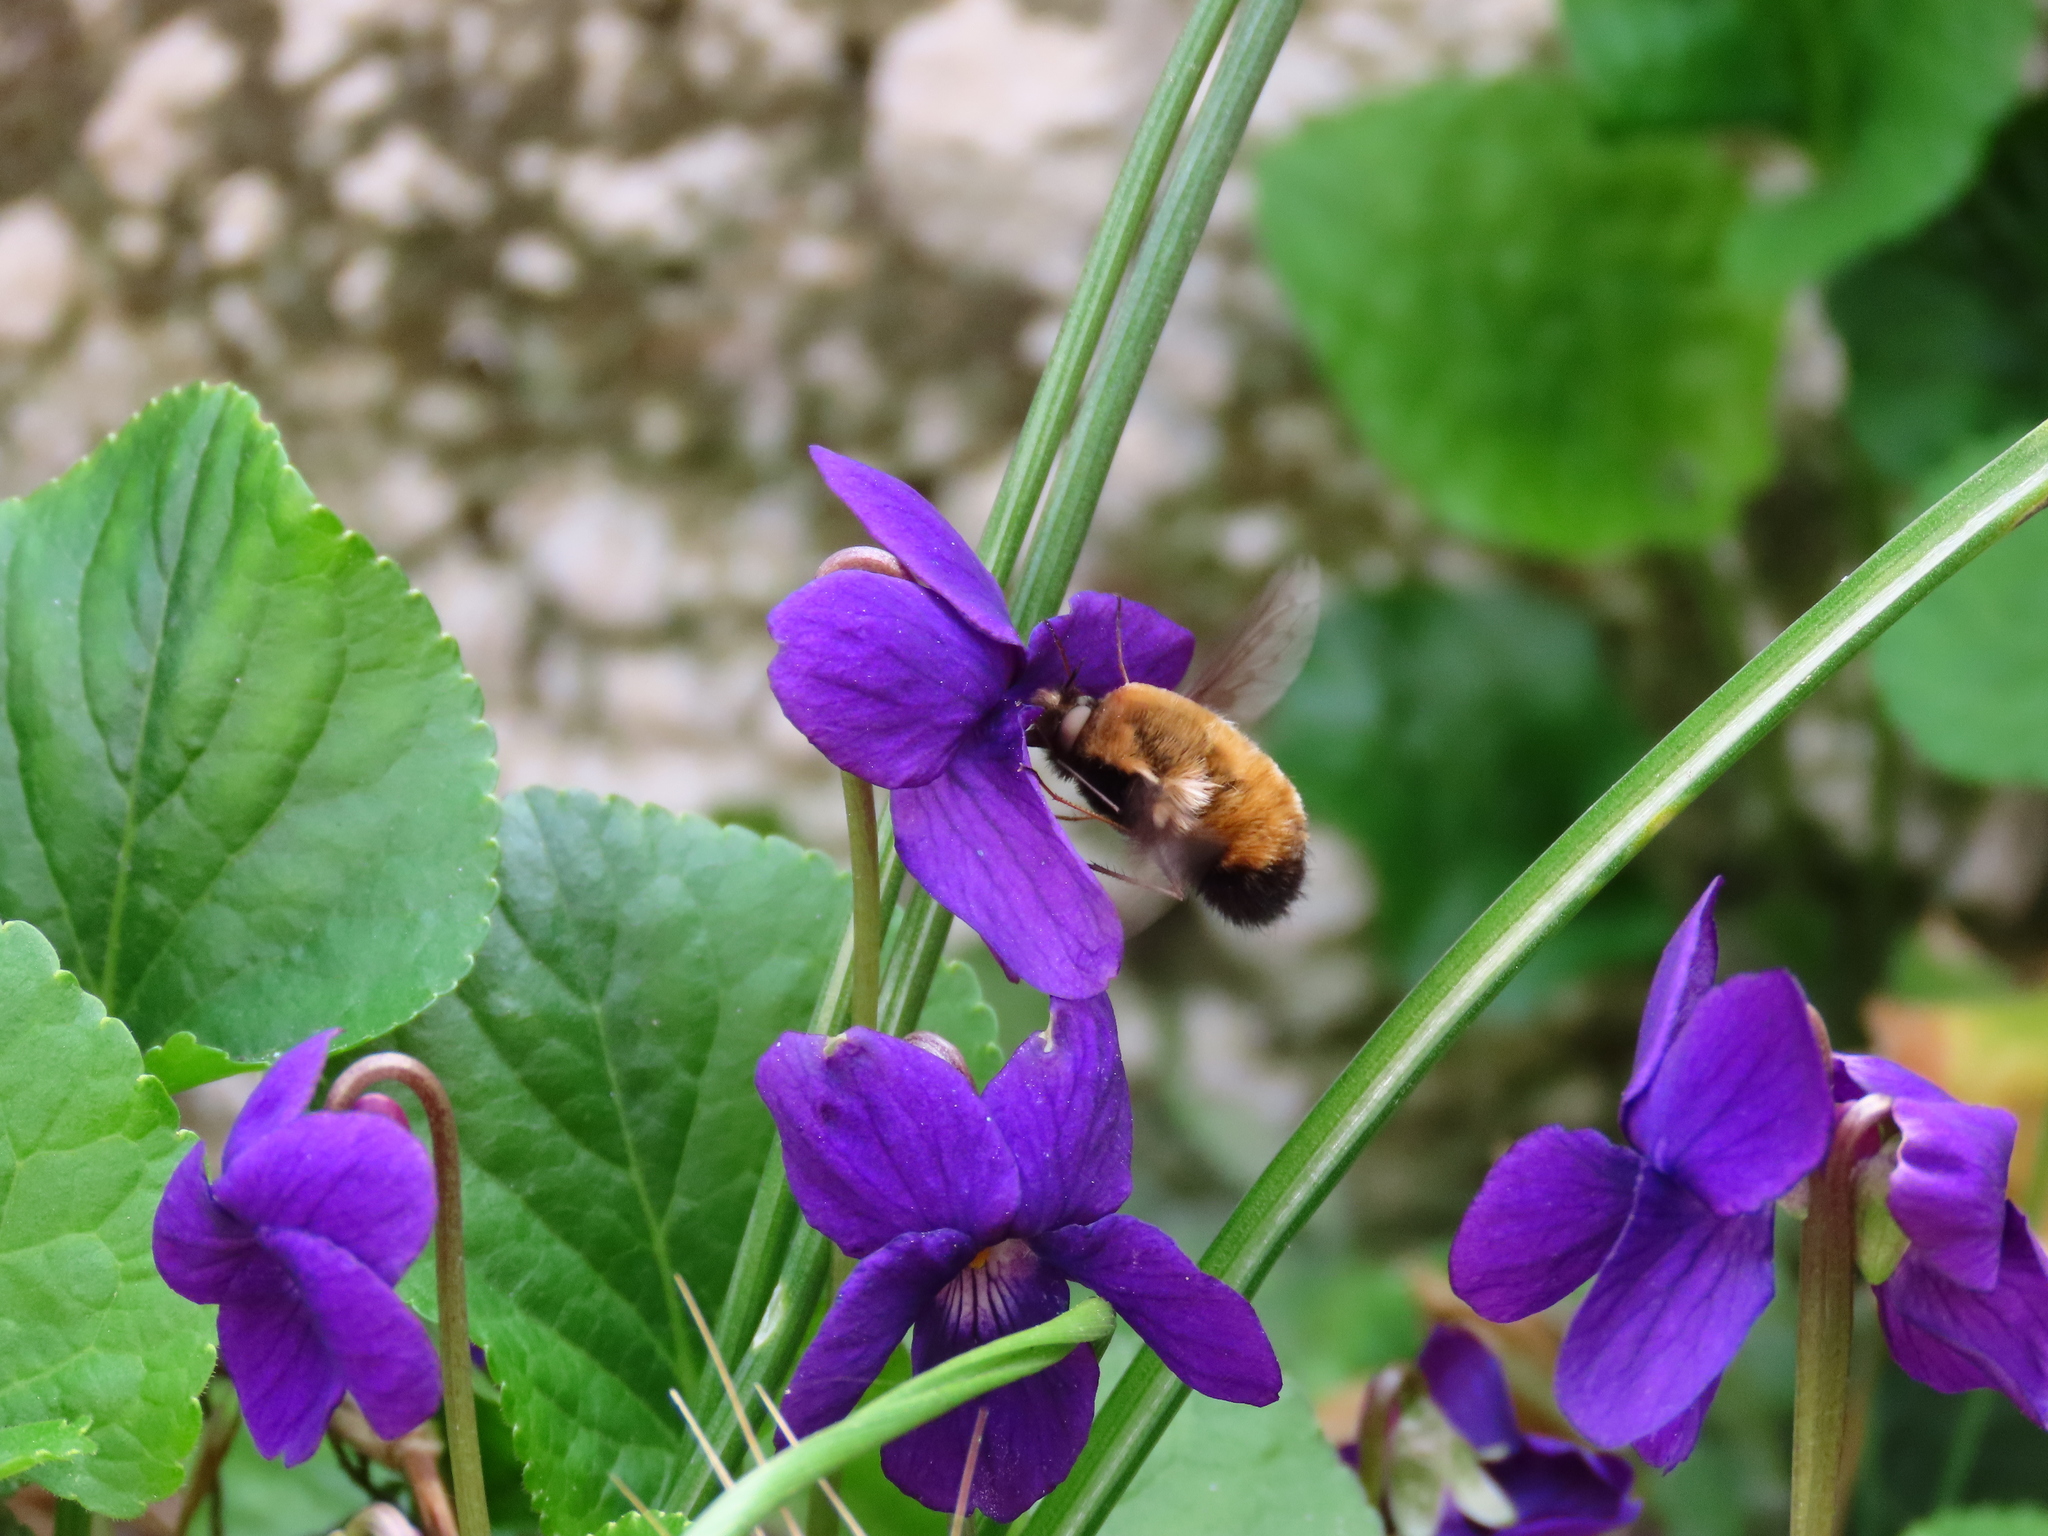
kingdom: Animalia
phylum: Arthropoda
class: Insecta
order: Diptera
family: Bombyliidae
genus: Bombylius
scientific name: Bombylius discolor
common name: Dotted bee-fly
